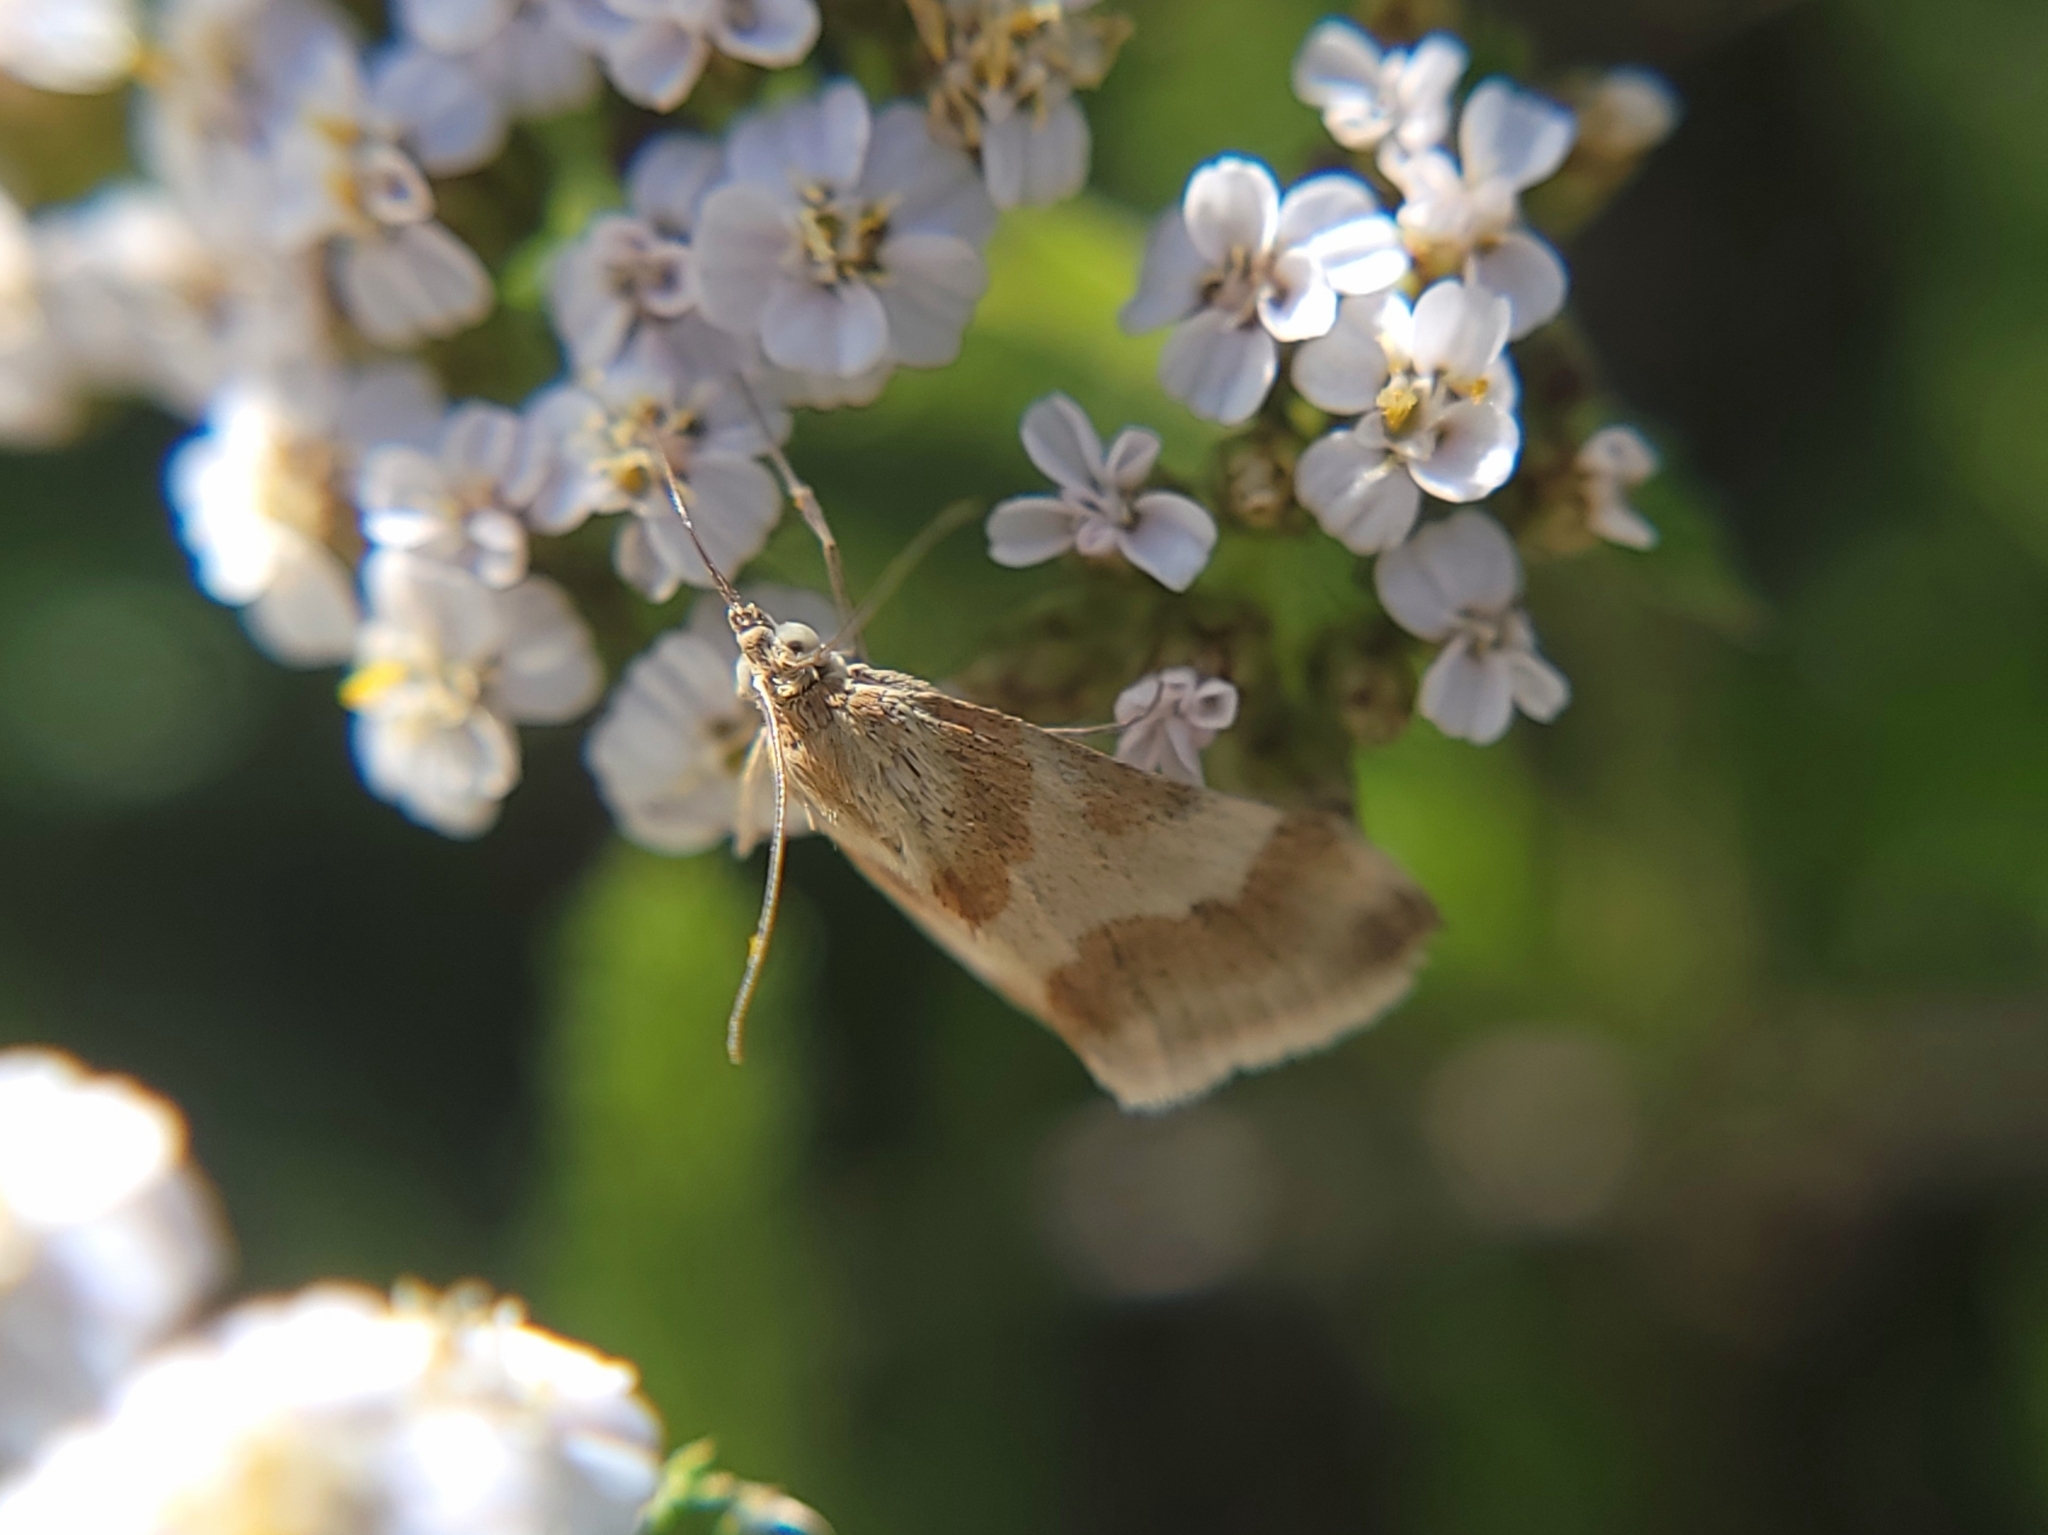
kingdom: Animalia
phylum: Arthropoda
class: Insecta
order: Lepidoptera
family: Crambidae
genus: Noctuelia
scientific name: Noctuelia Mimoschinia rufofascialis
